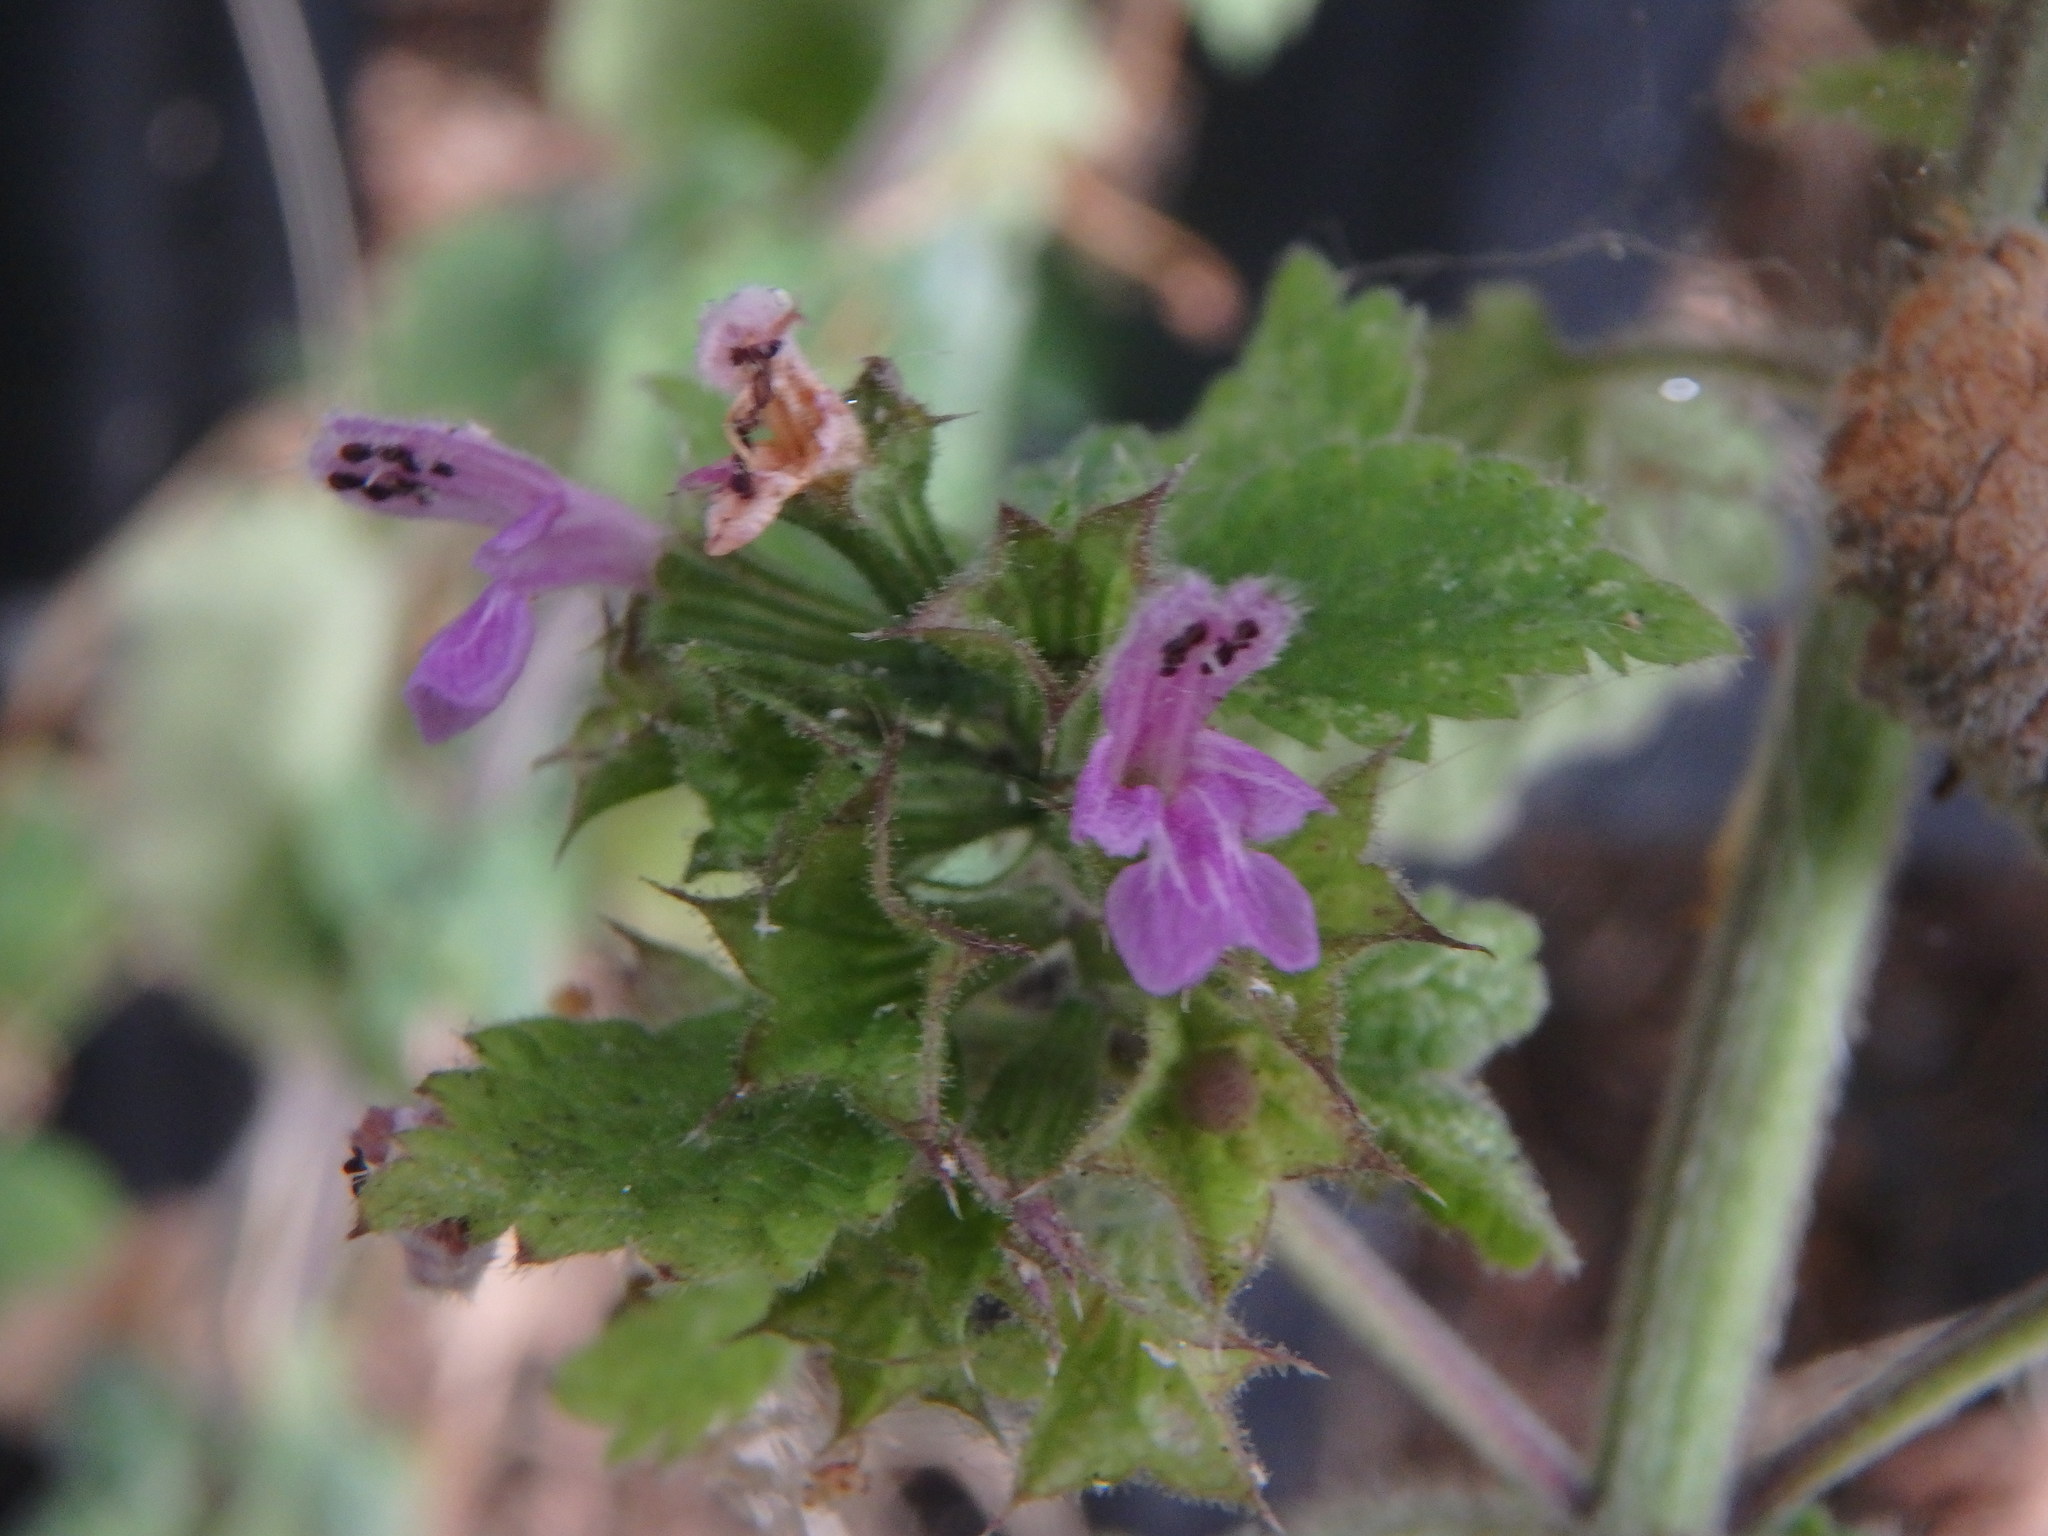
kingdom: Plantae
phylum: Tracheophyta
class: Magnoliopsida
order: Lamiales
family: Lamiaceae
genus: Ballota
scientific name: Ballota nigra
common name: Black horehound
